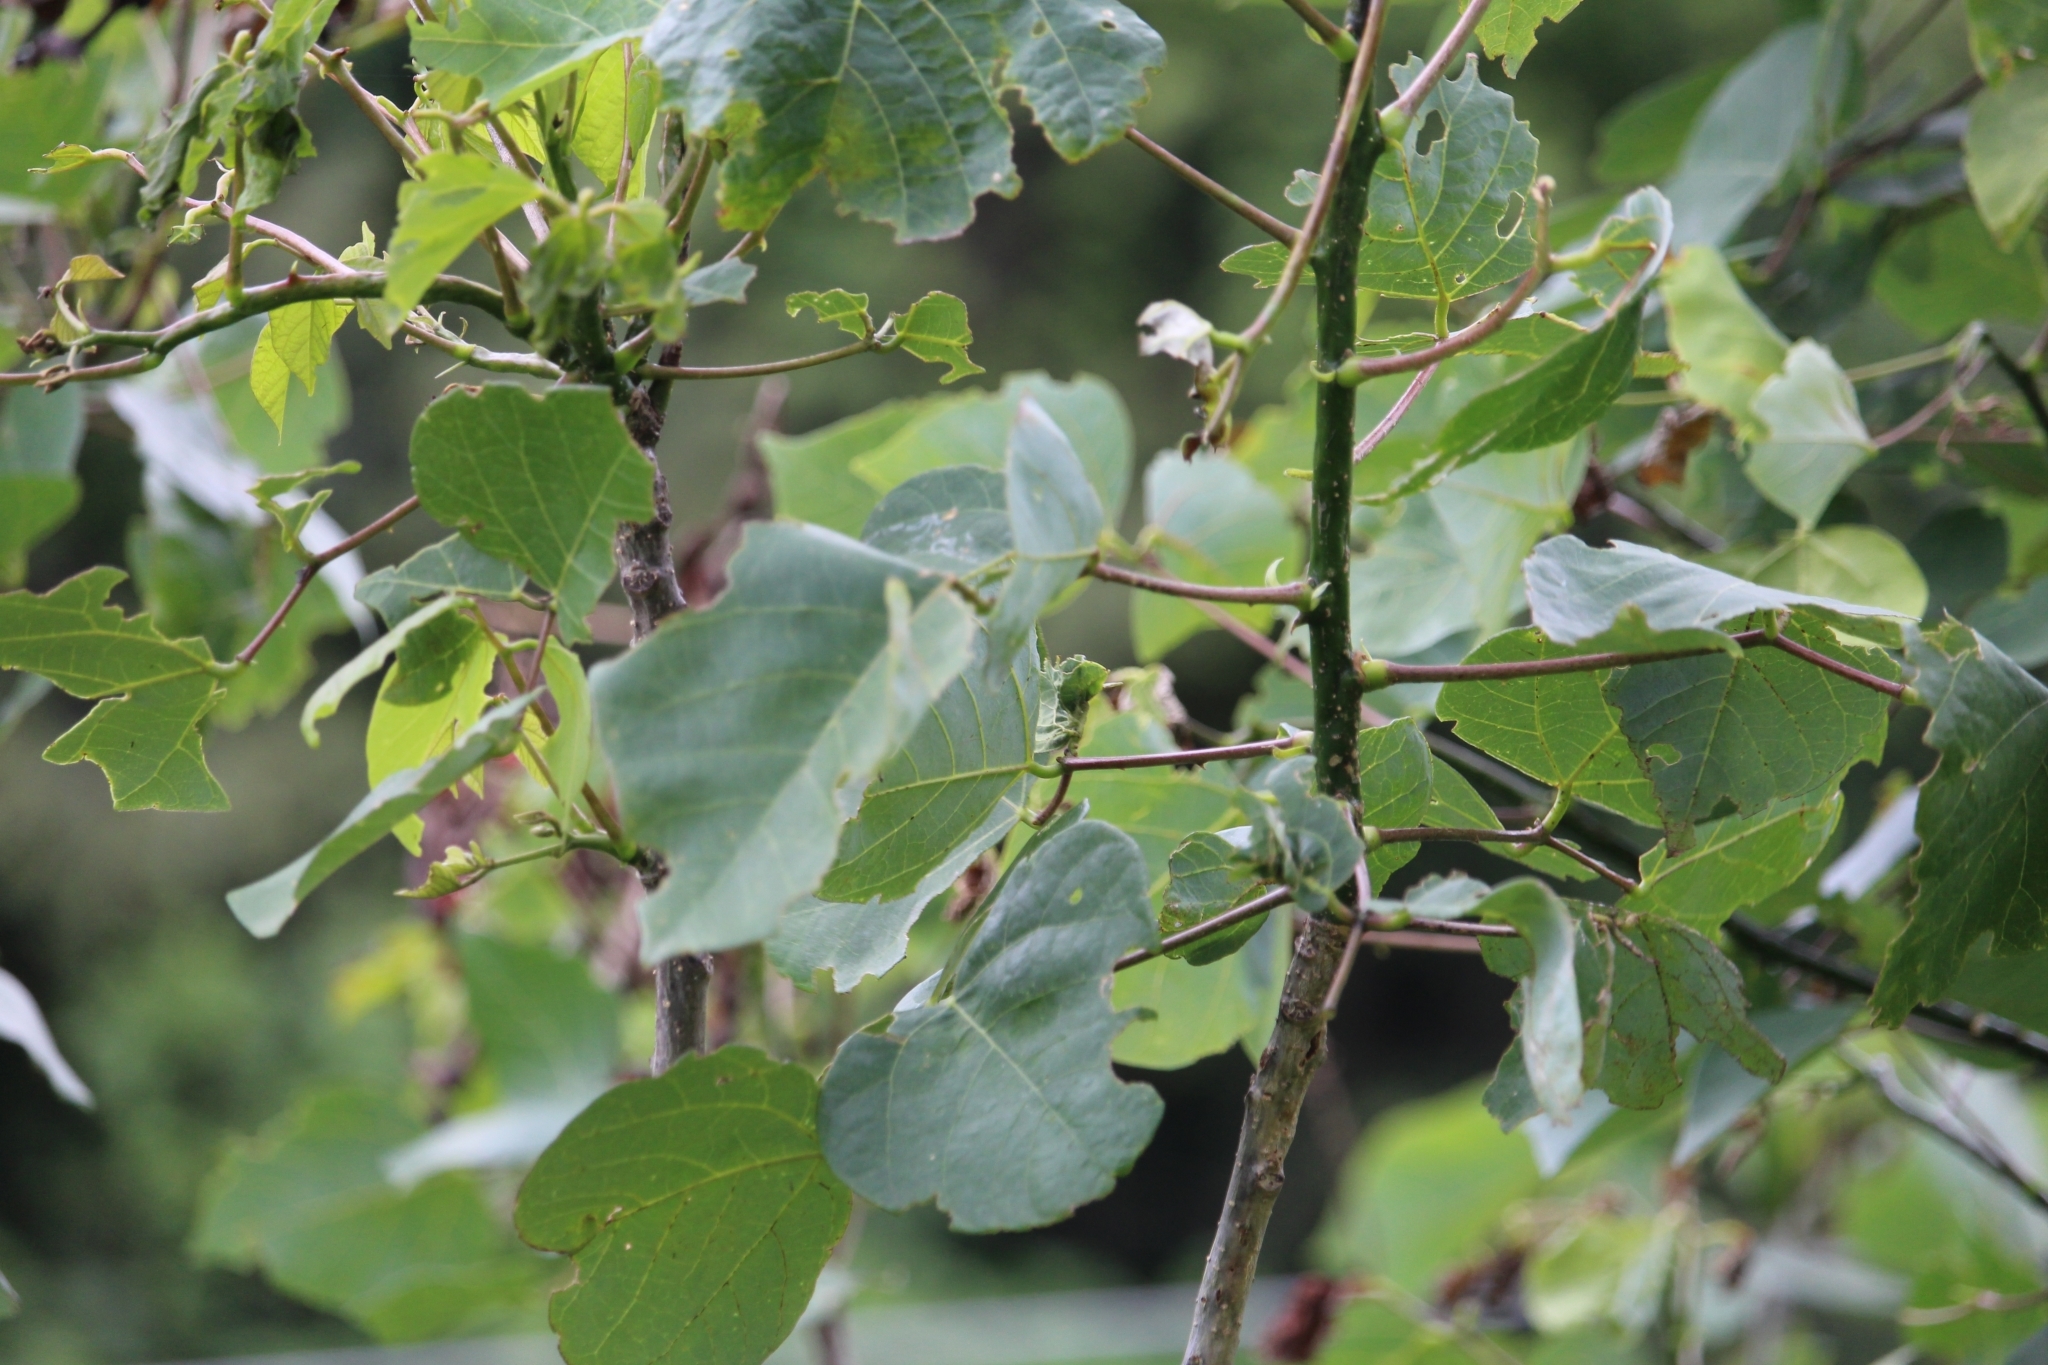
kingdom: Plantae
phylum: Tracheophyta
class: Magnoliopsida
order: Fabales
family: Fabaceae
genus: Erythrina
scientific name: Erythrina berteroana
